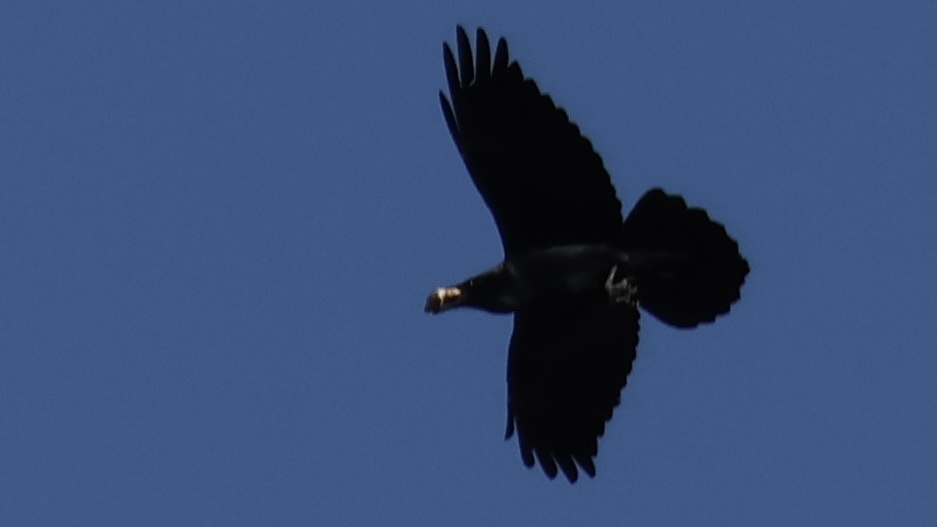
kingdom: Animalia
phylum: Chordata
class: Aves
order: Passeriformes
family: Corvidae
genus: Corvus
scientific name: Corvus corax
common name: Common raven
